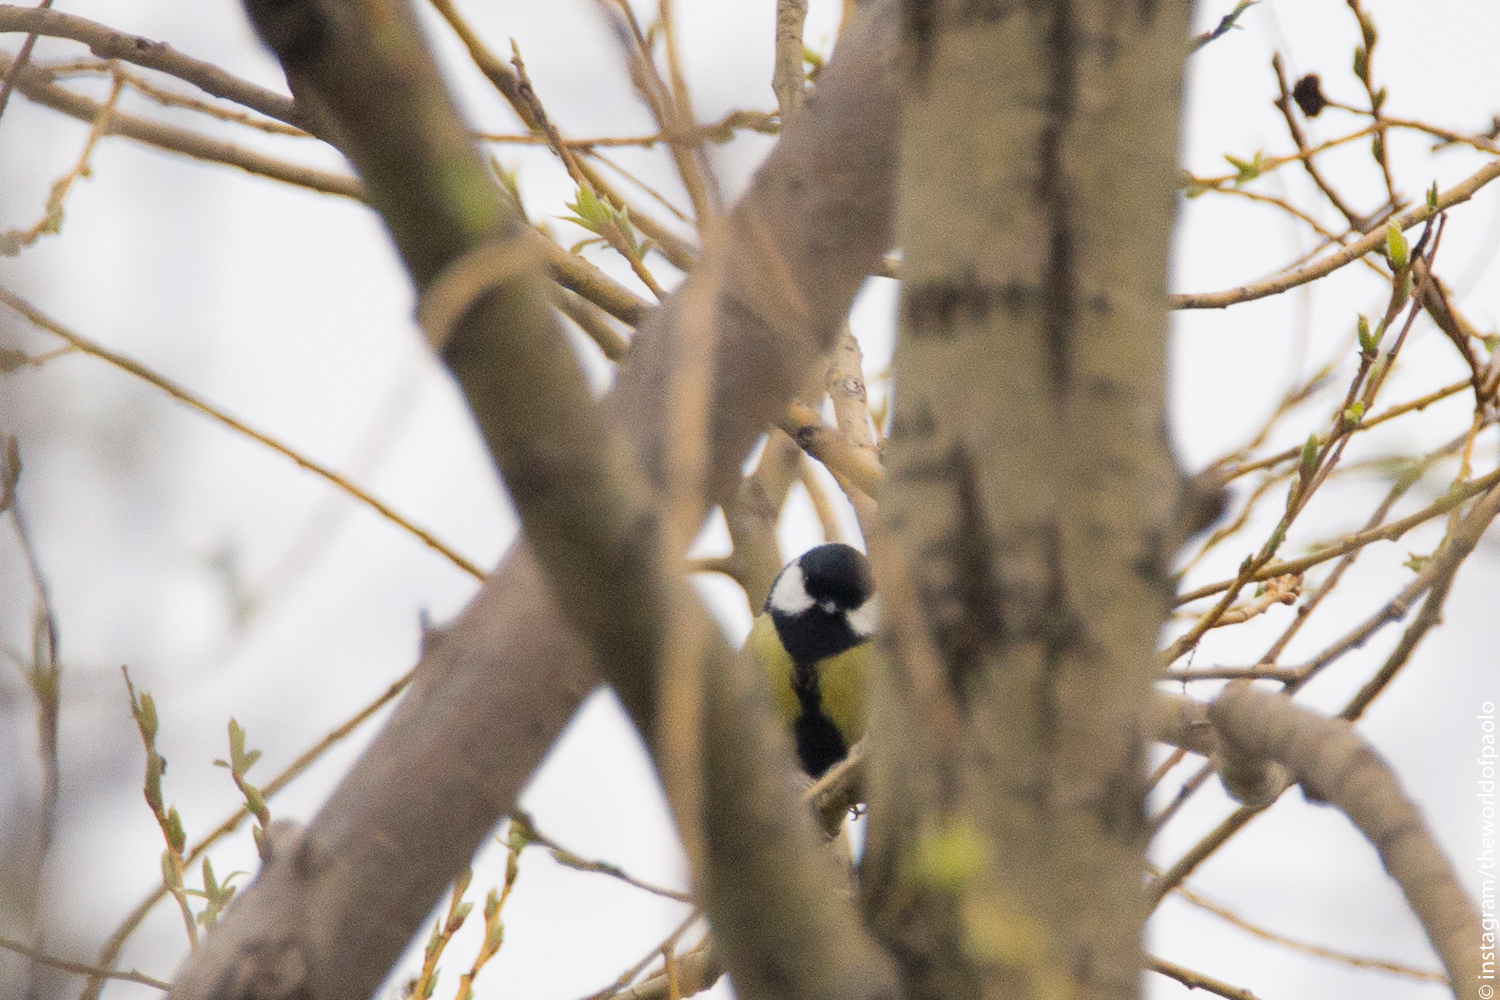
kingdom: Animalia
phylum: Chordata
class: Aves
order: Passeriformes
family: Paridae
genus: Parus
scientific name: Parus major
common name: Great tit
